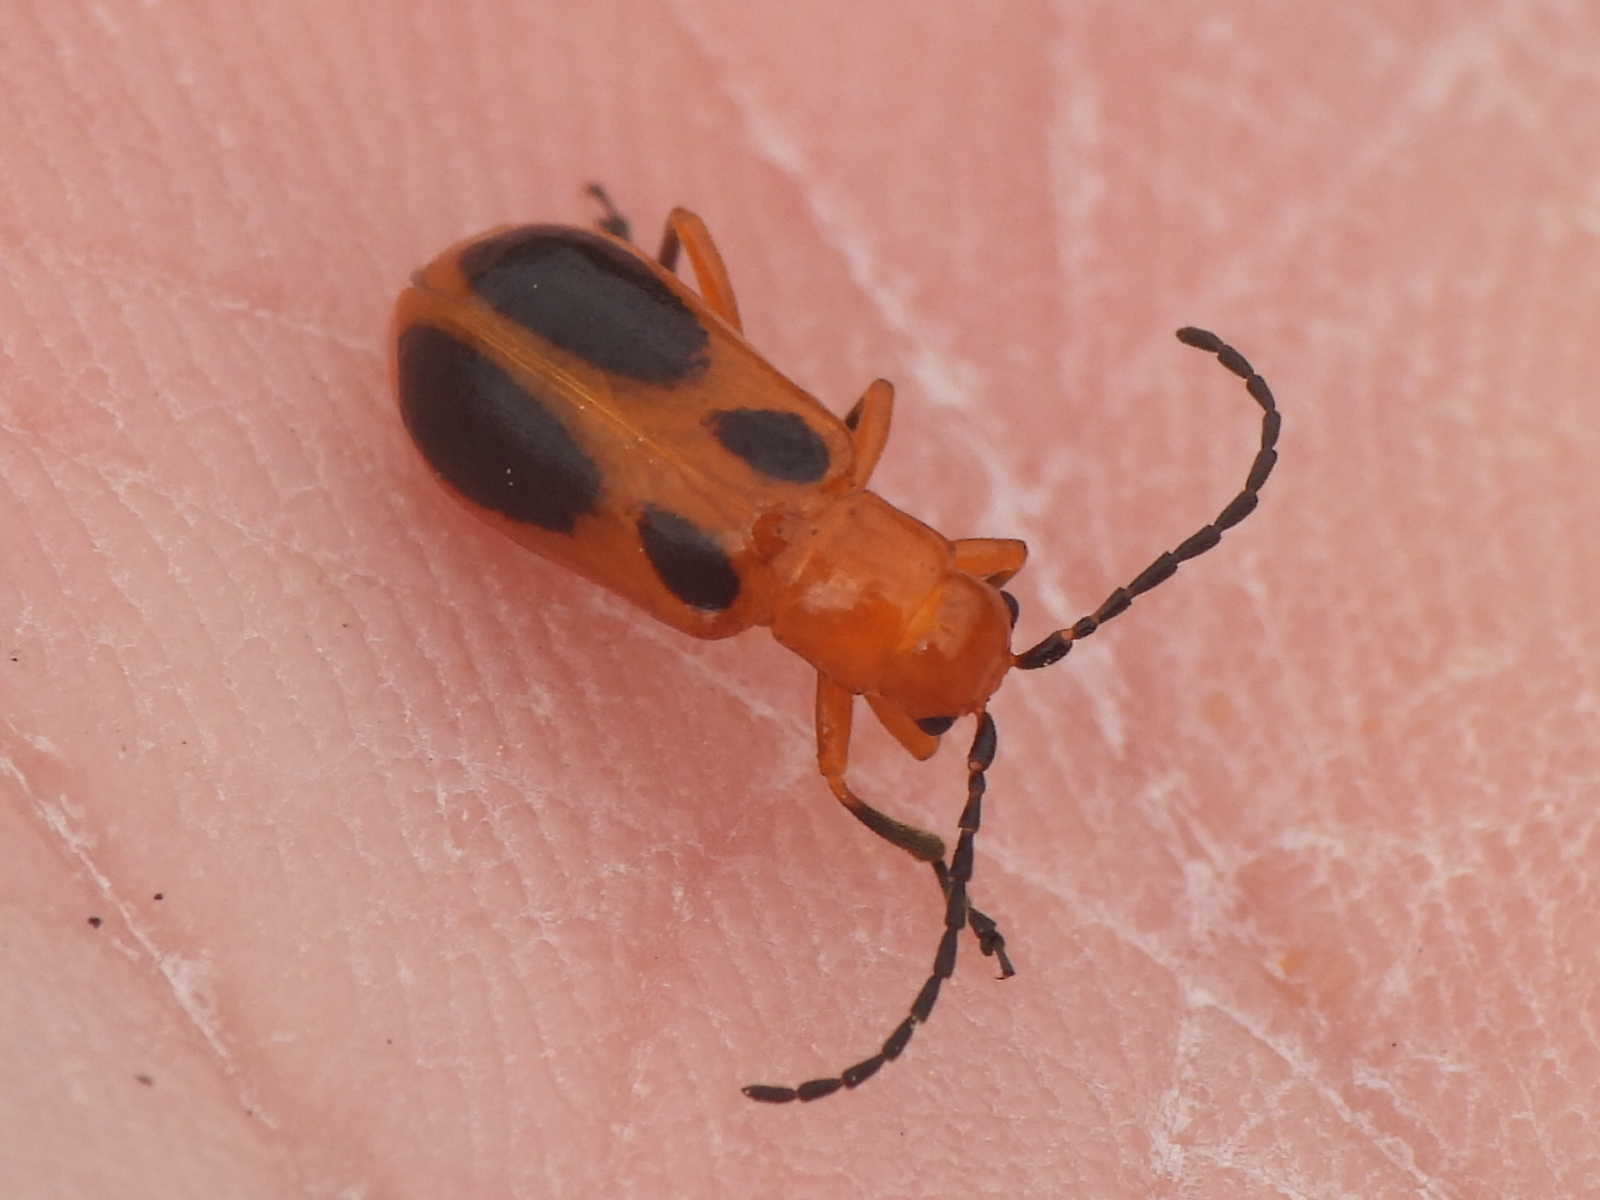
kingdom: Animalia
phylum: Arthropoda
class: Insecta
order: Coleoptera
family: Chrysomelidae
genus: Phyllobrotica
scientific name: Phyllobrotica sororia
